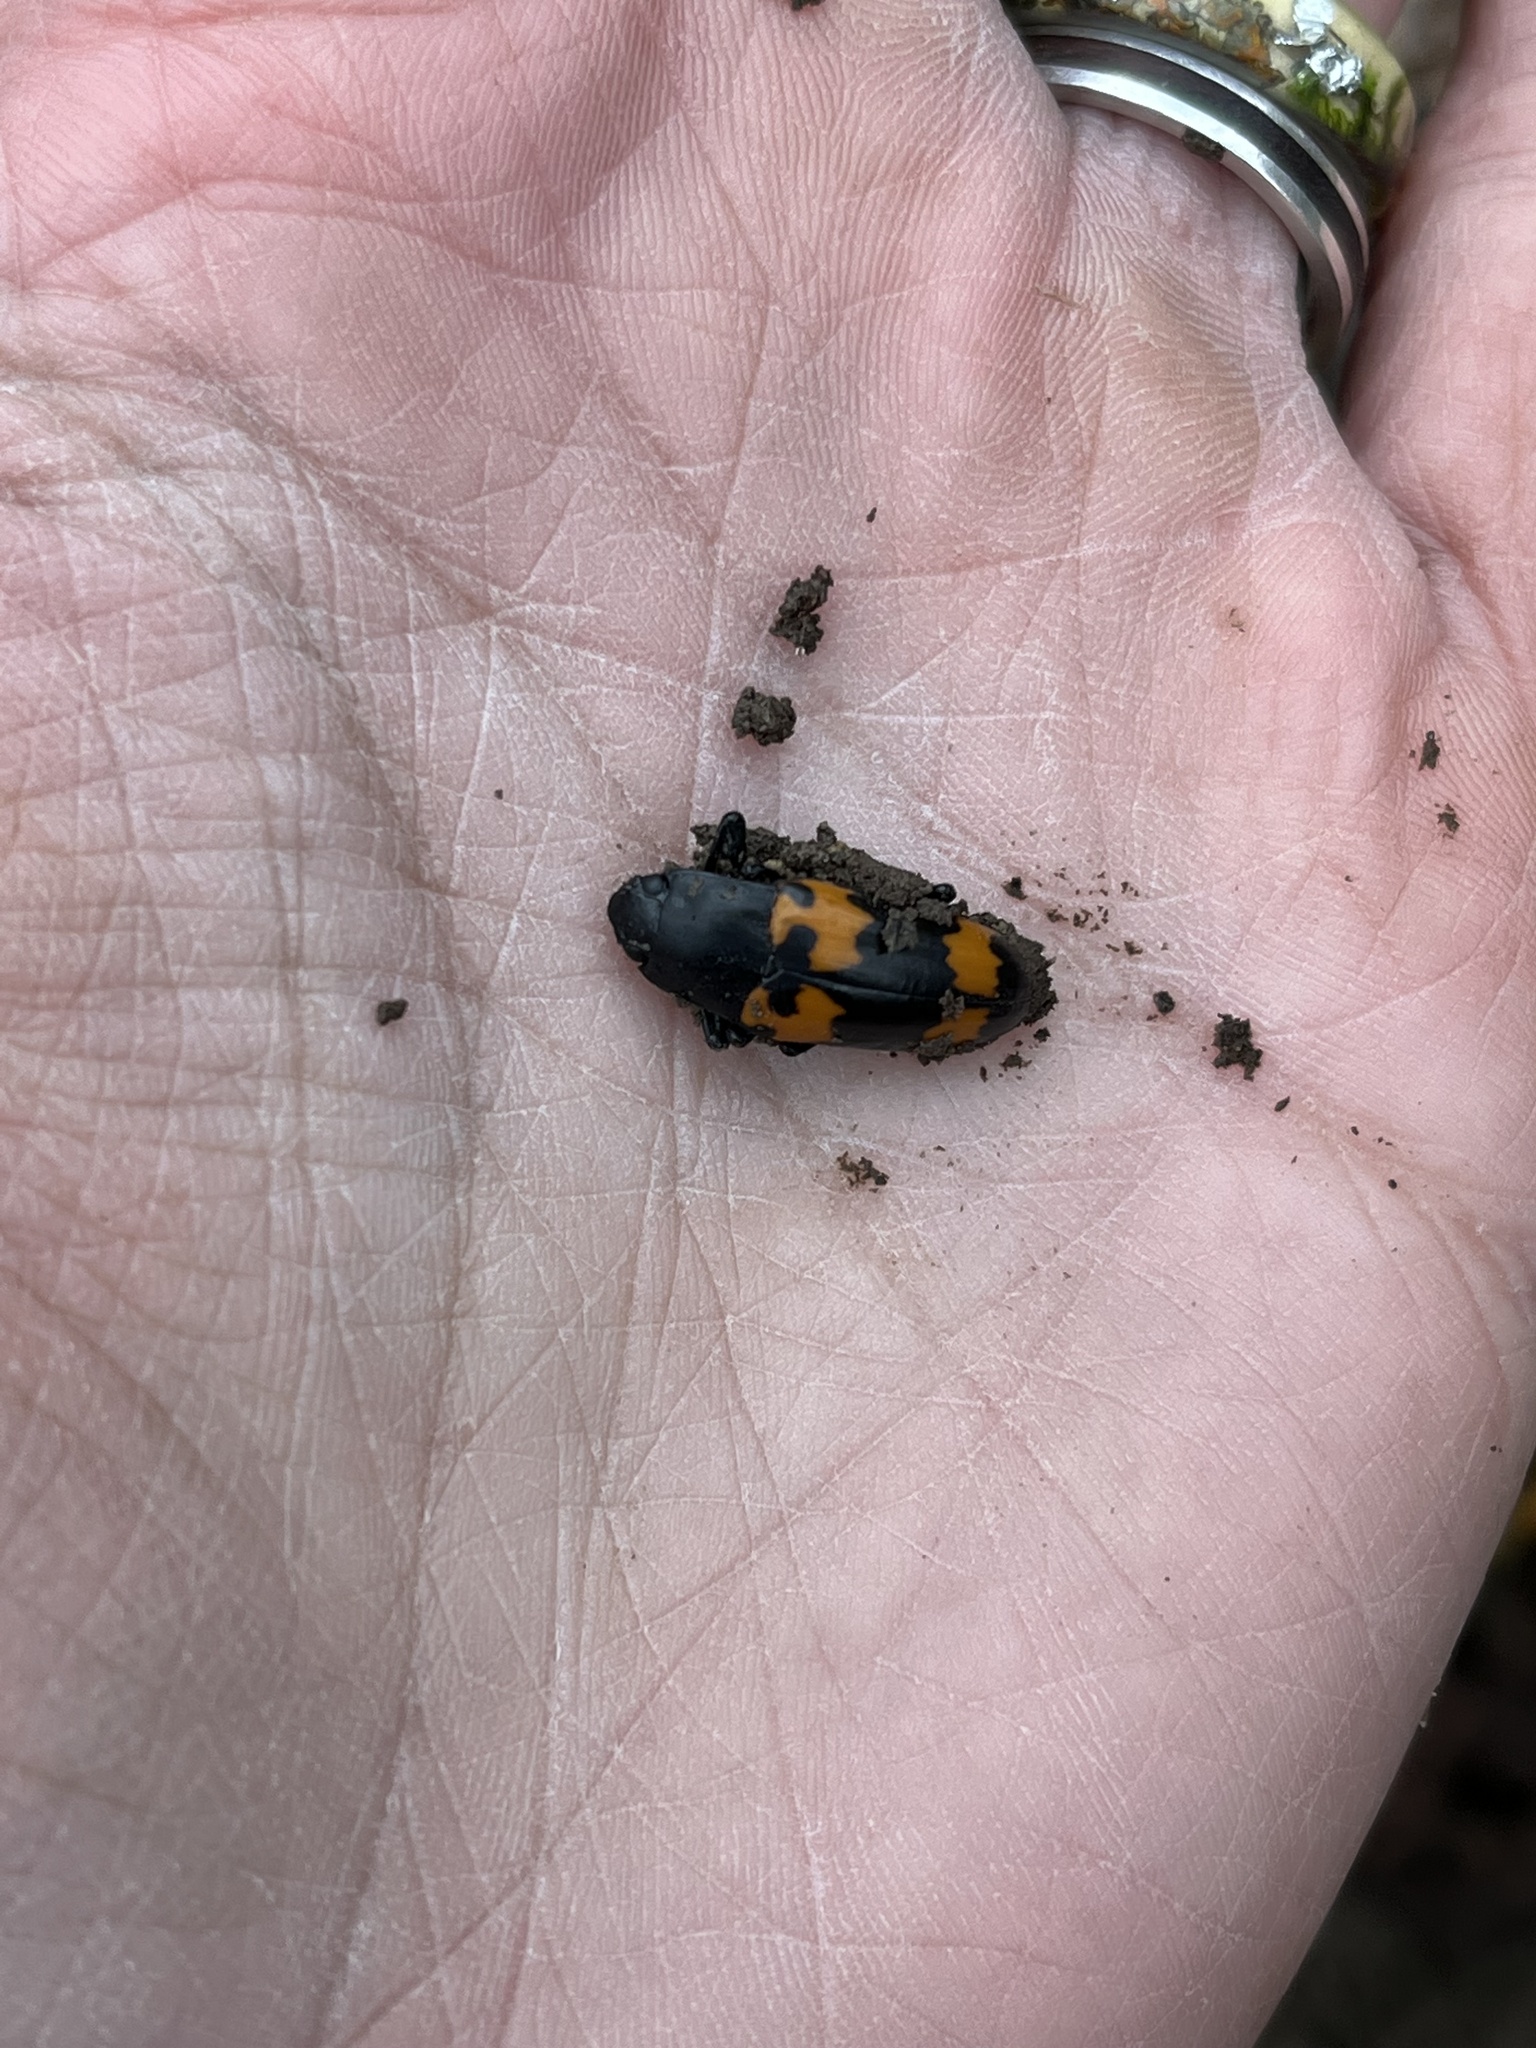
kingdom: Animalia
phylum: Arthropoda
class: Insecta
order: Coleoptera
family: Erotylidae
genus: Megalodacne
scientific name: Megalodacne heros
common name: Pleasing fungus beetle
